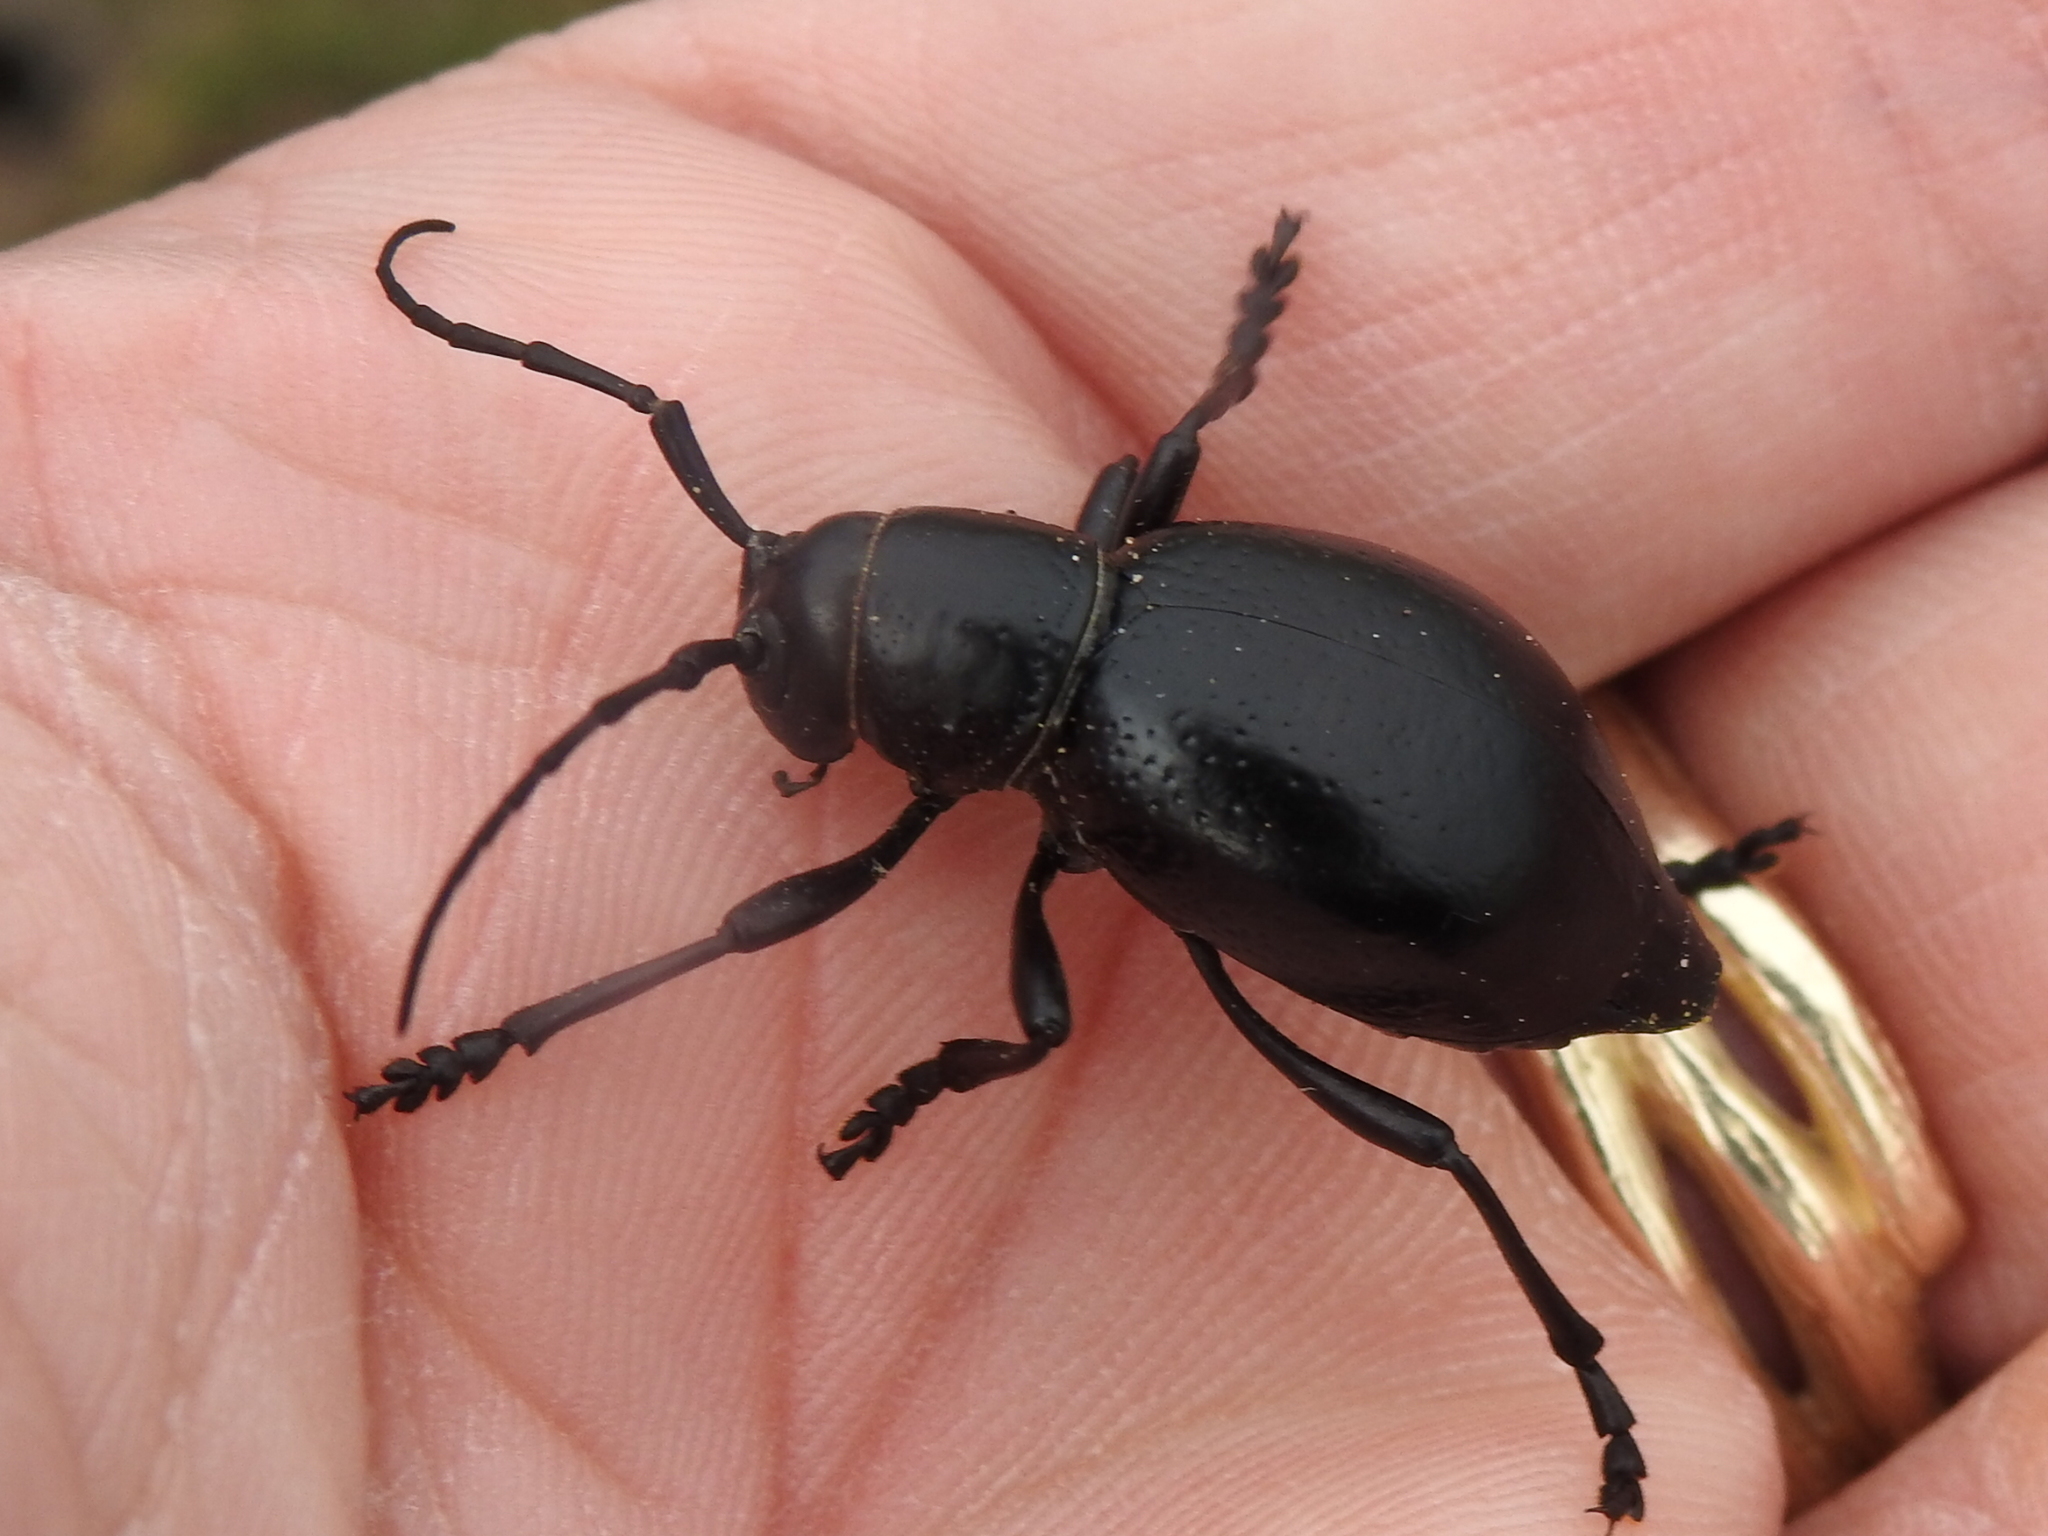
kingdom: Animalia
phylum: Arthropoda
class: Insecta
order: Coleoptera
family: Cerambycidae
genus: Moneilema
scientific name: Moneilema armatum
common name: Long-horned beetle
